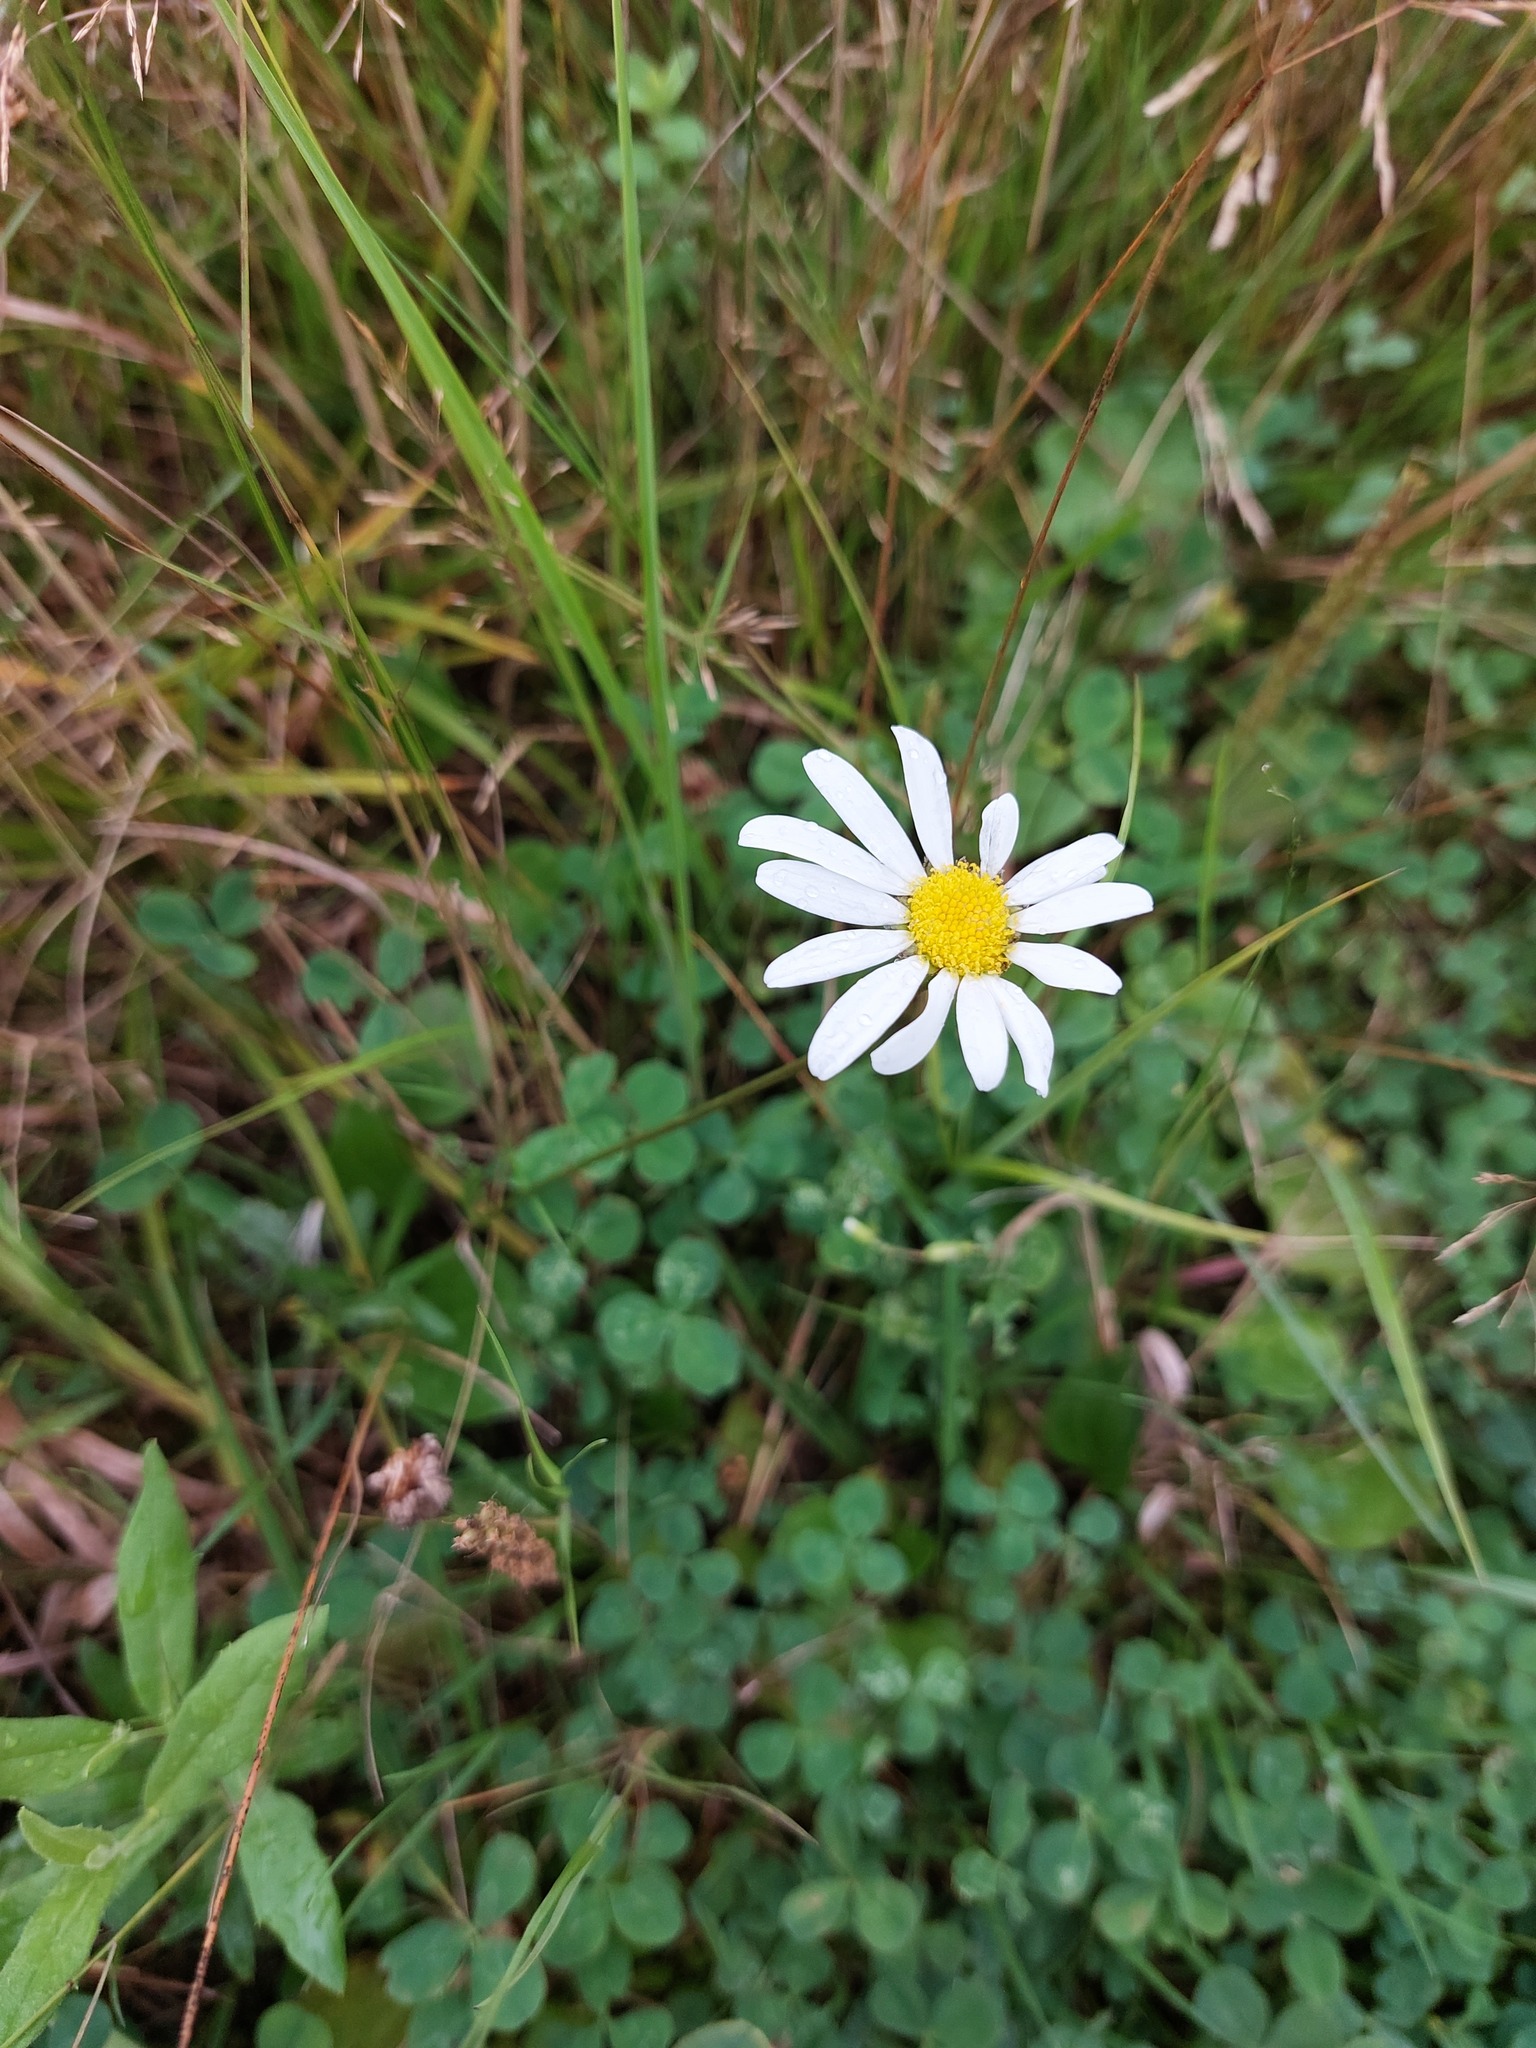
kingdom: Plantae
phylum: Tracheophyta
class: Magnoliopsida
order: Asterales
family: Asteraceae
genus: Leucanthemum
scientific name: Leucanthemum vulgare
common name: Oxeye daisy
